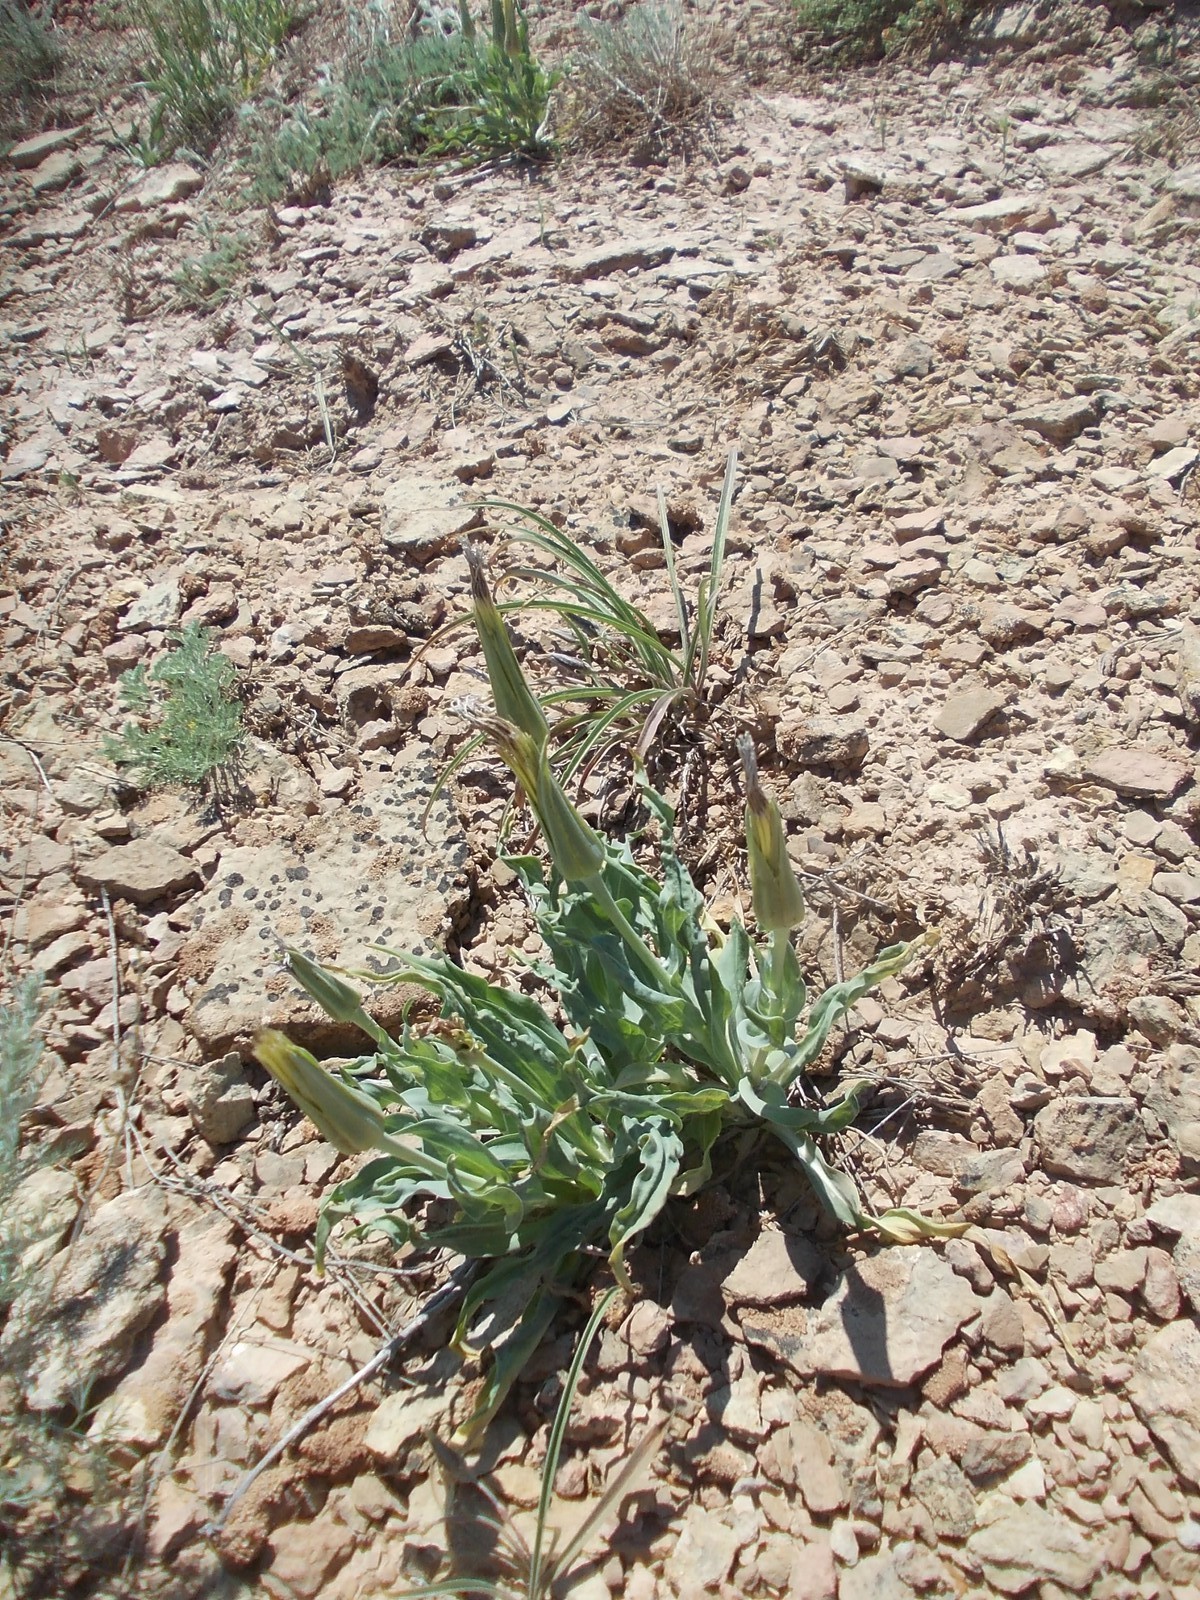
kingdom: Plantae
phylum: Tracheophyta
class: Magnoliopsida
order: Asterales
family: Asteraceae
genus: Tragopogon
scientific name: Tragopogon marginifolius
